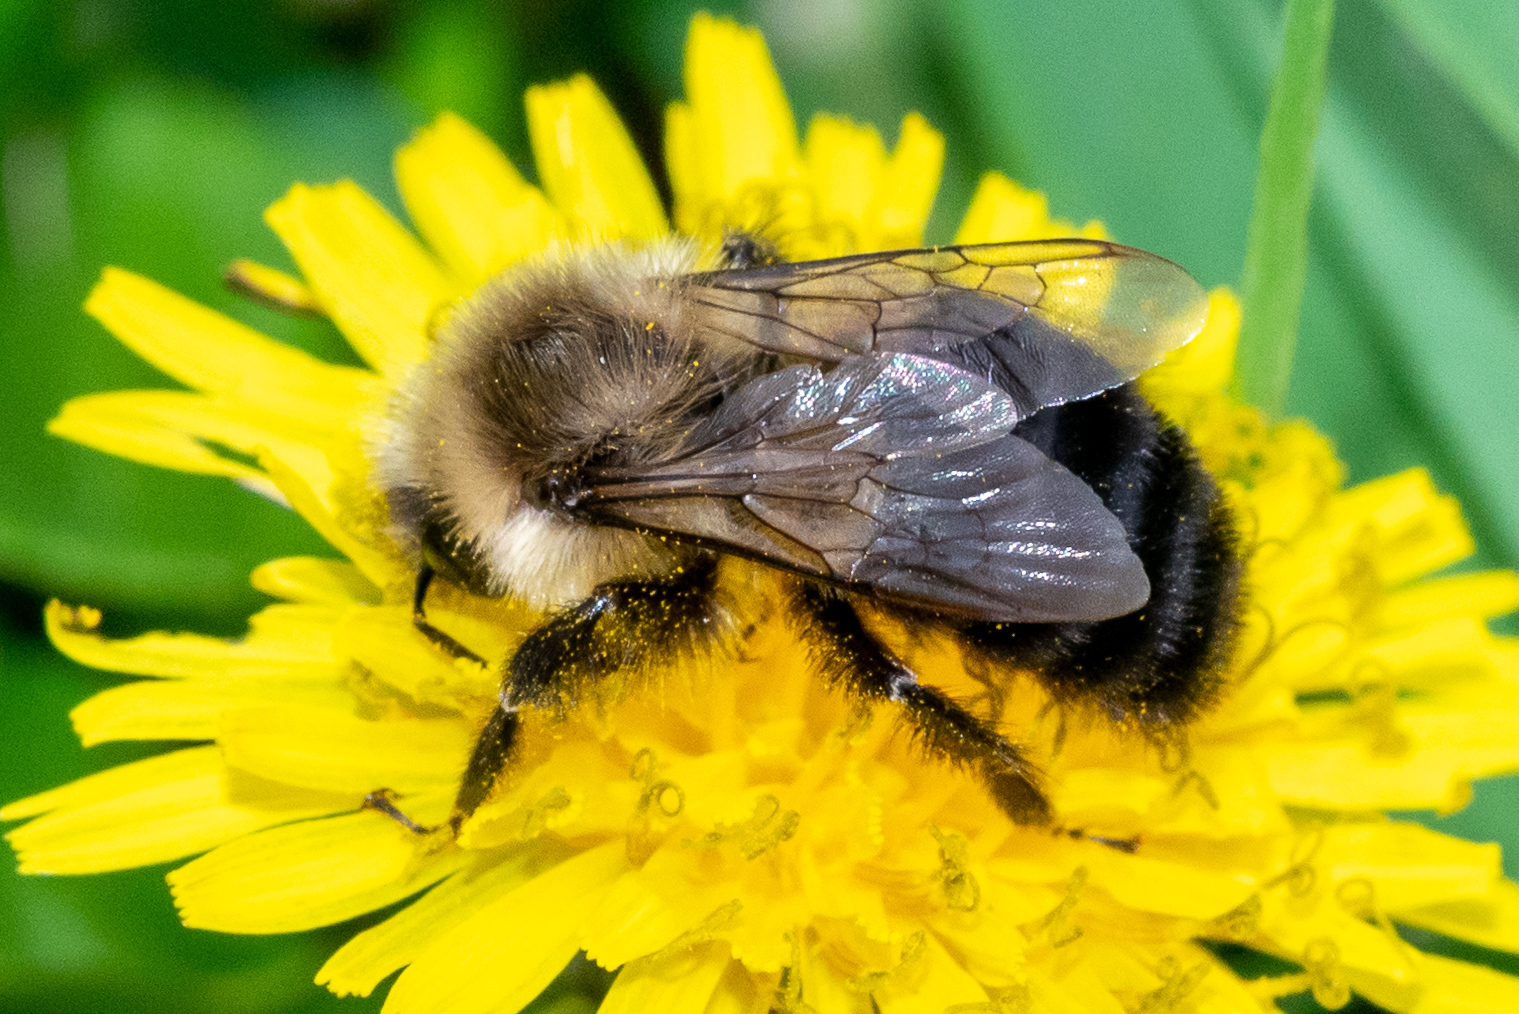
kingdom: Animalia
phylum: Arthropoda
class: Insecta
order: Hymenoptera
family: Apidae
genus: Bombus
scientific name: Bombus impatiens
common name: Common eastern bumble bee
